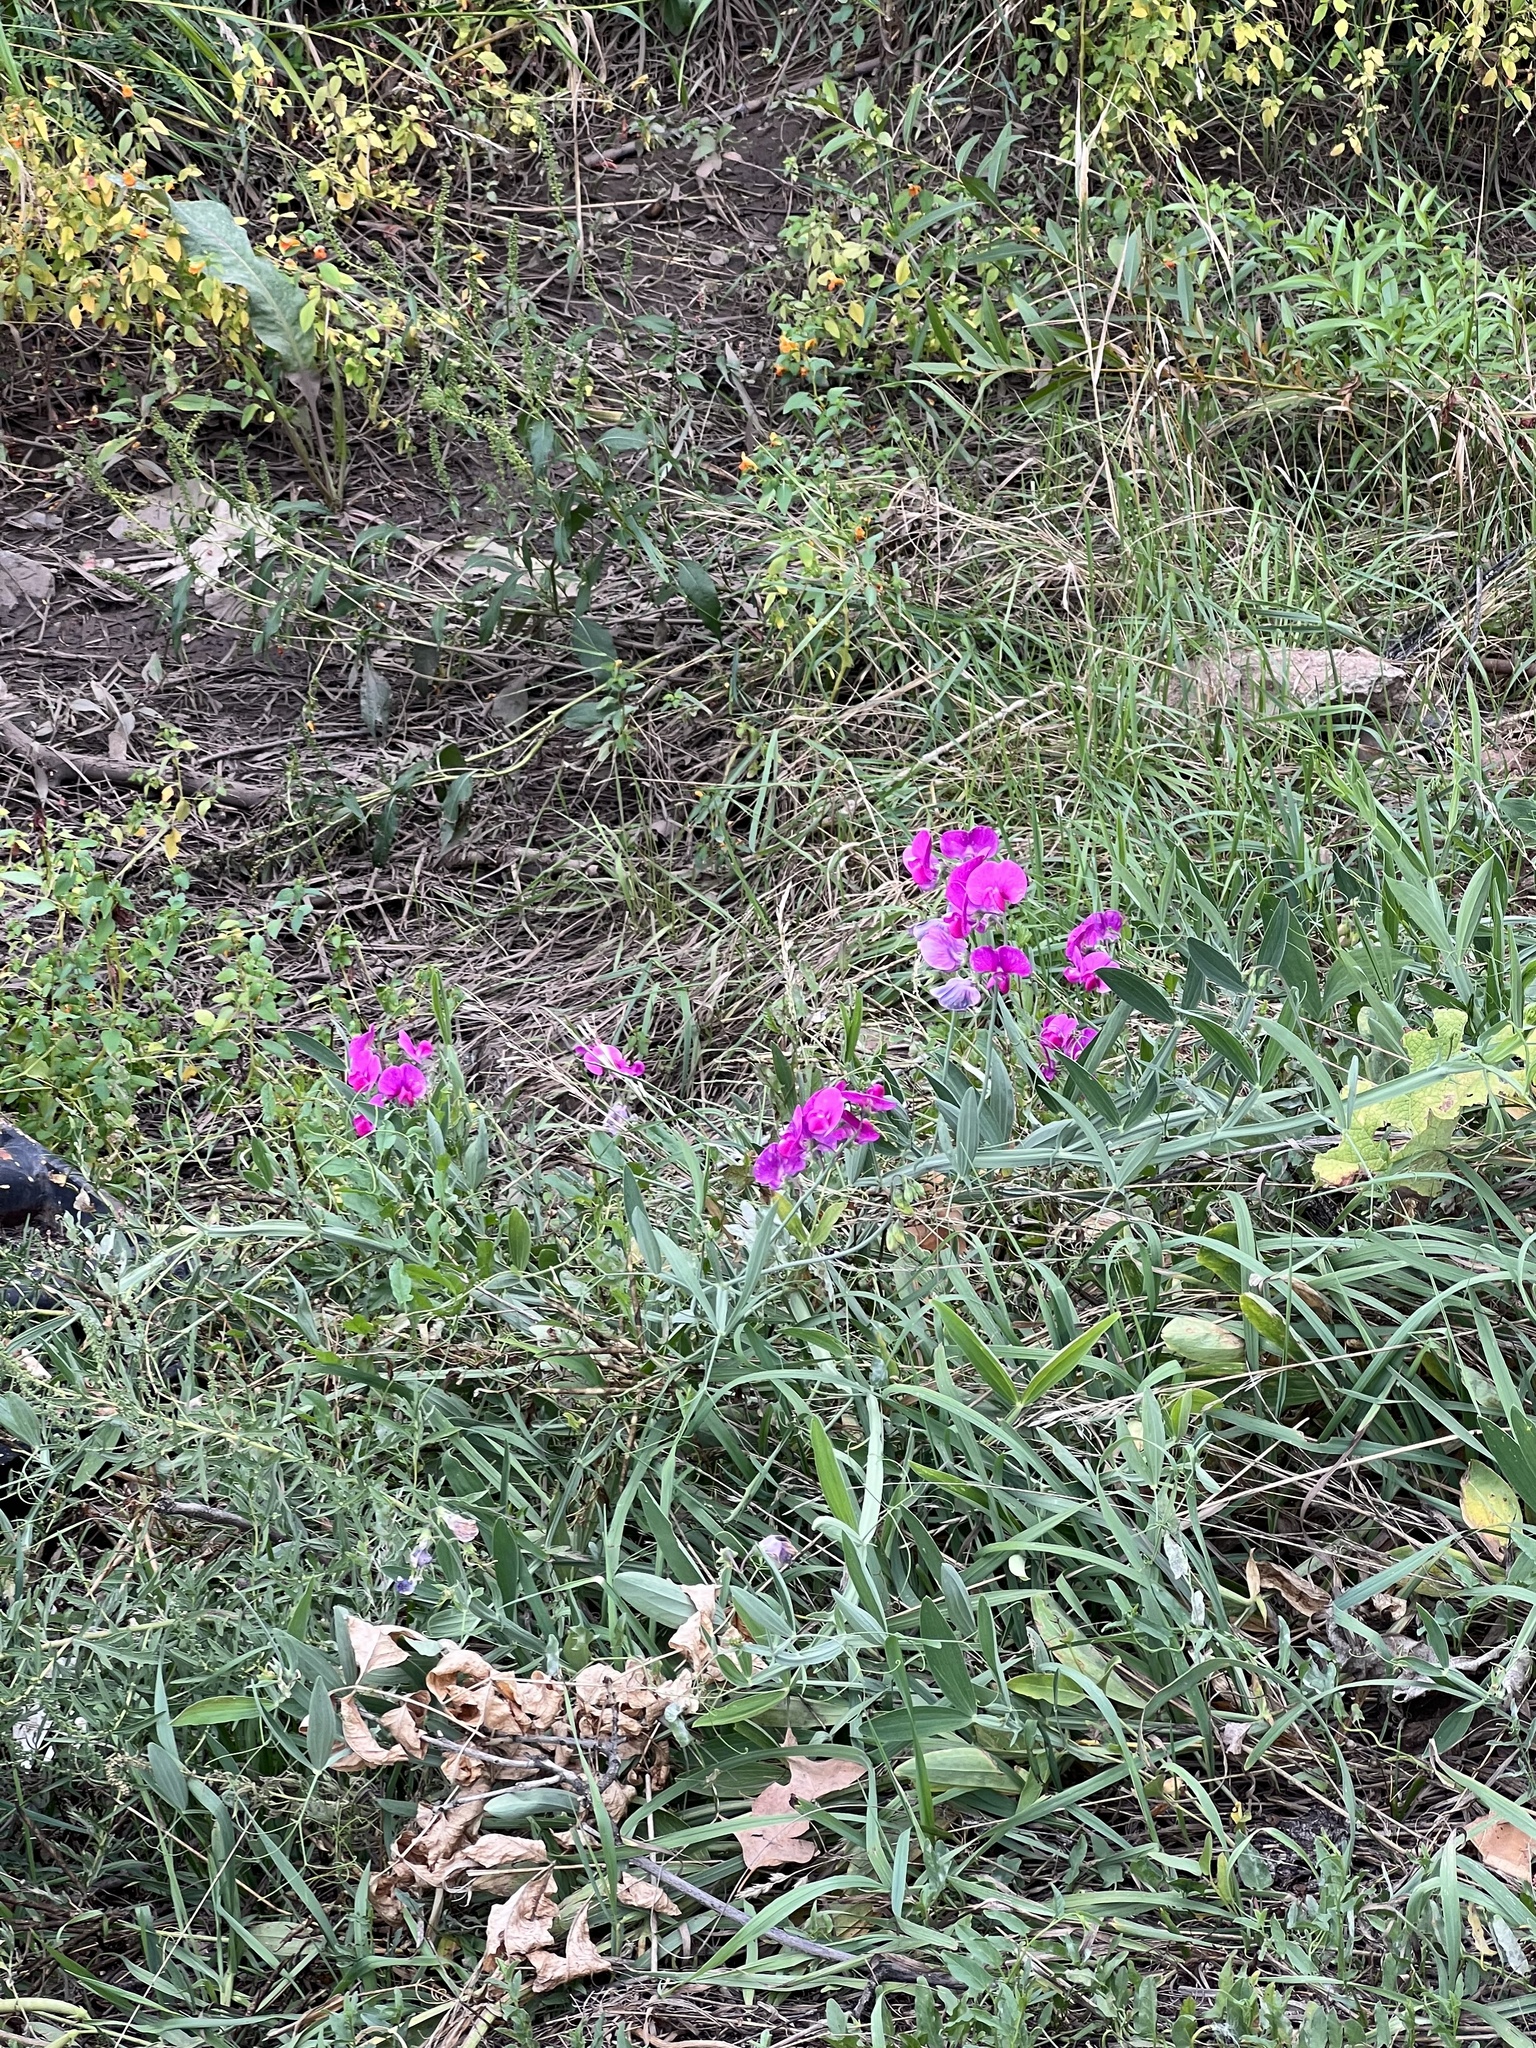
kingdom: Plantae
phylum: Tracheophyta
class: Magnoliopsida
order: Fabales
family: Fabaceae
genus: Lathyrus
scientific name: Lathyrus latifolius
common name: Perennial pea
